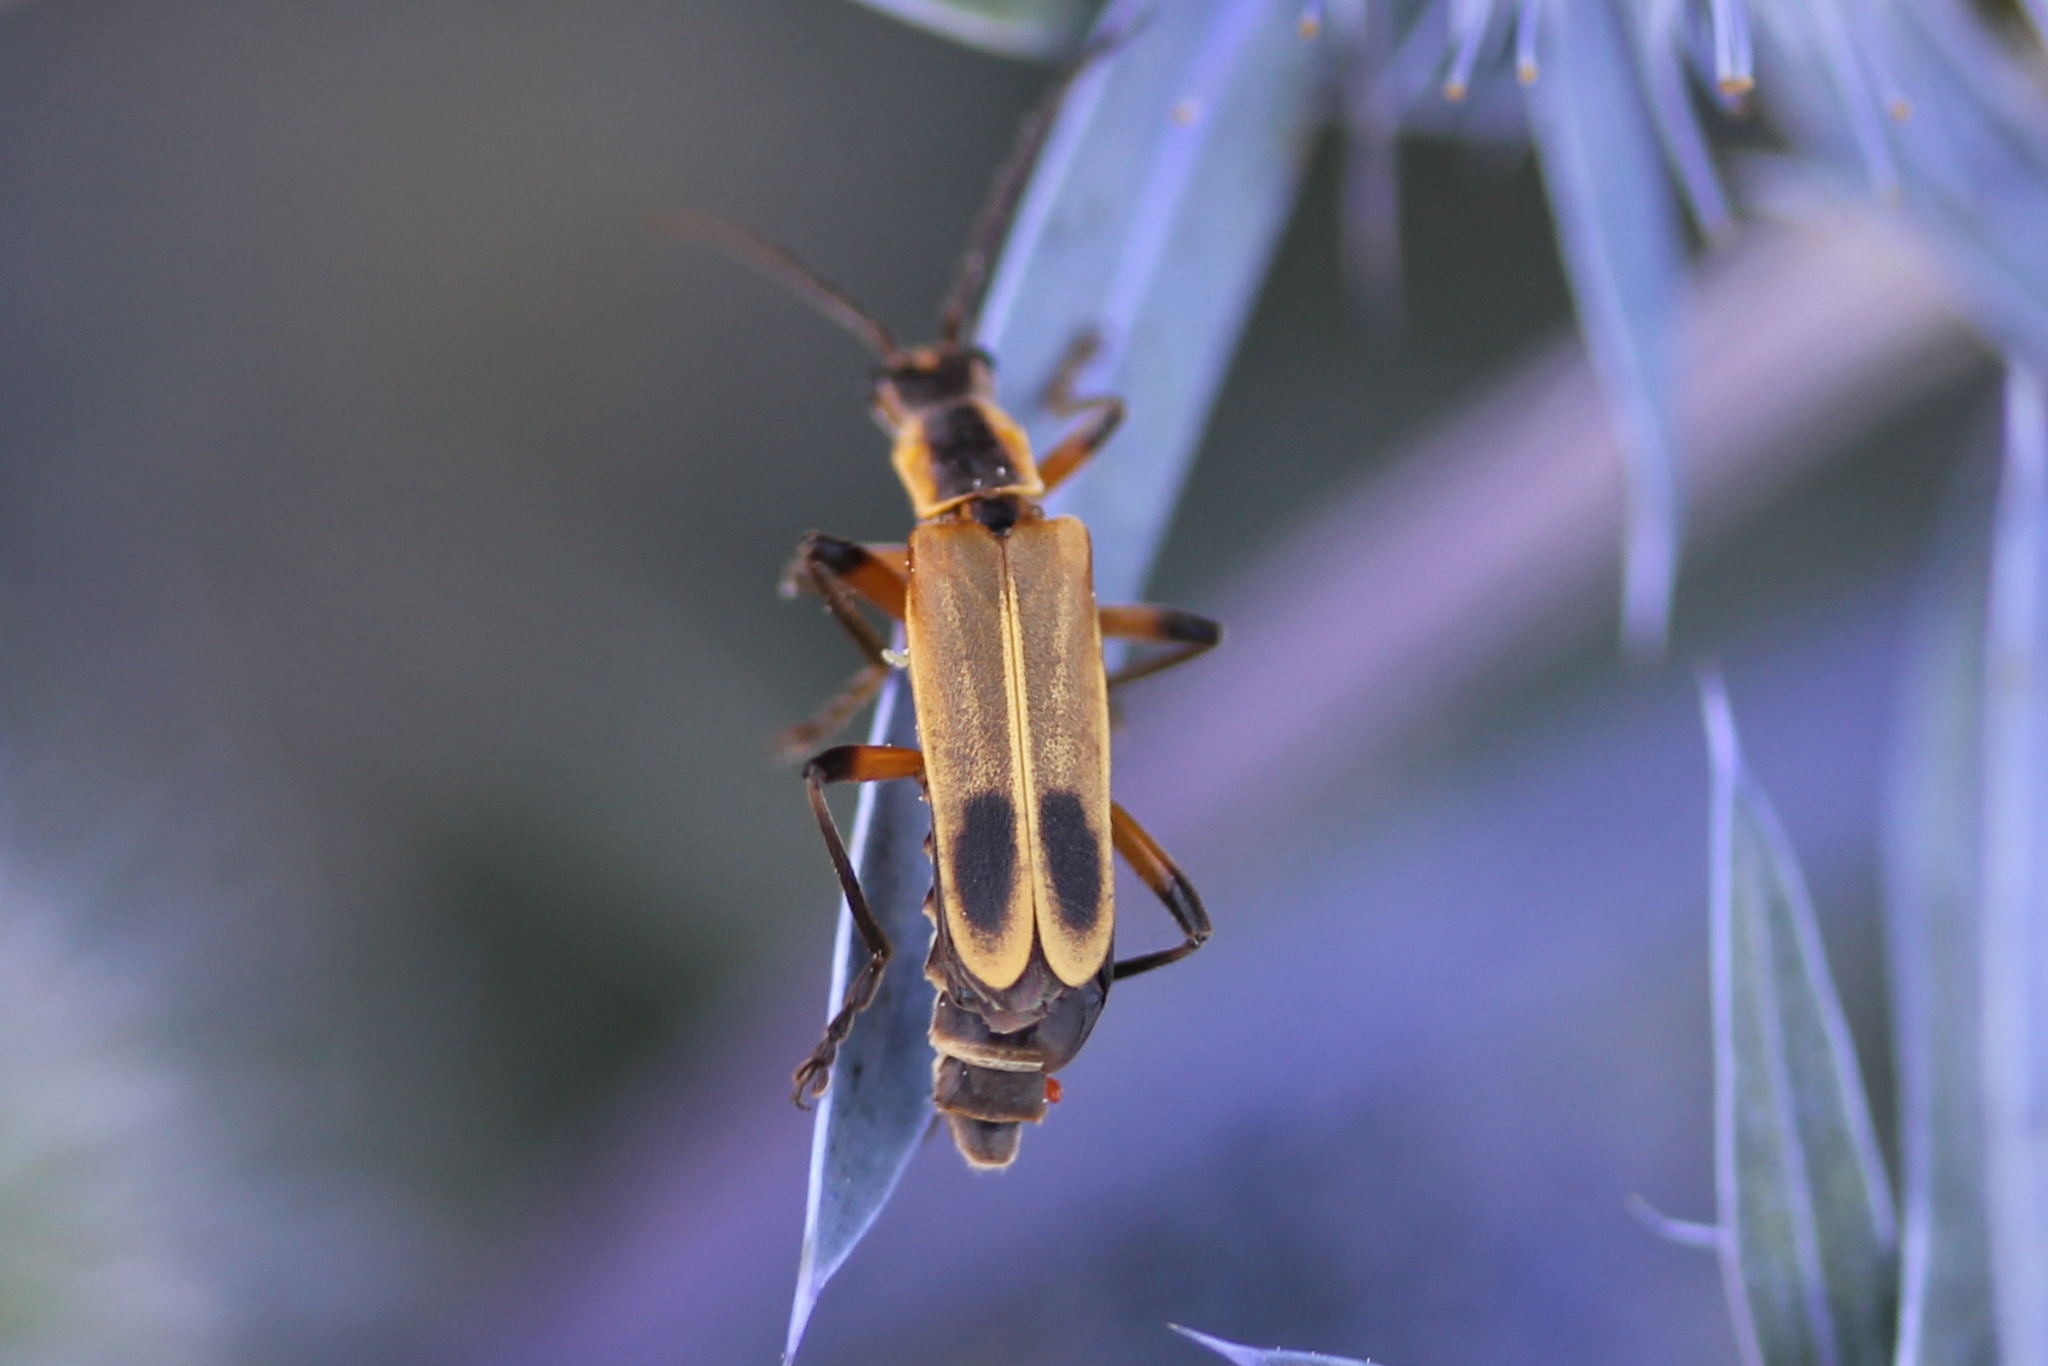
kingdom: Animalia
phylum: Arthropoda
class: Insecta
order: Coleoptera
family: Cantharidae
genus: Chauliognathus
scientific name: Chauliognathus marginatus
